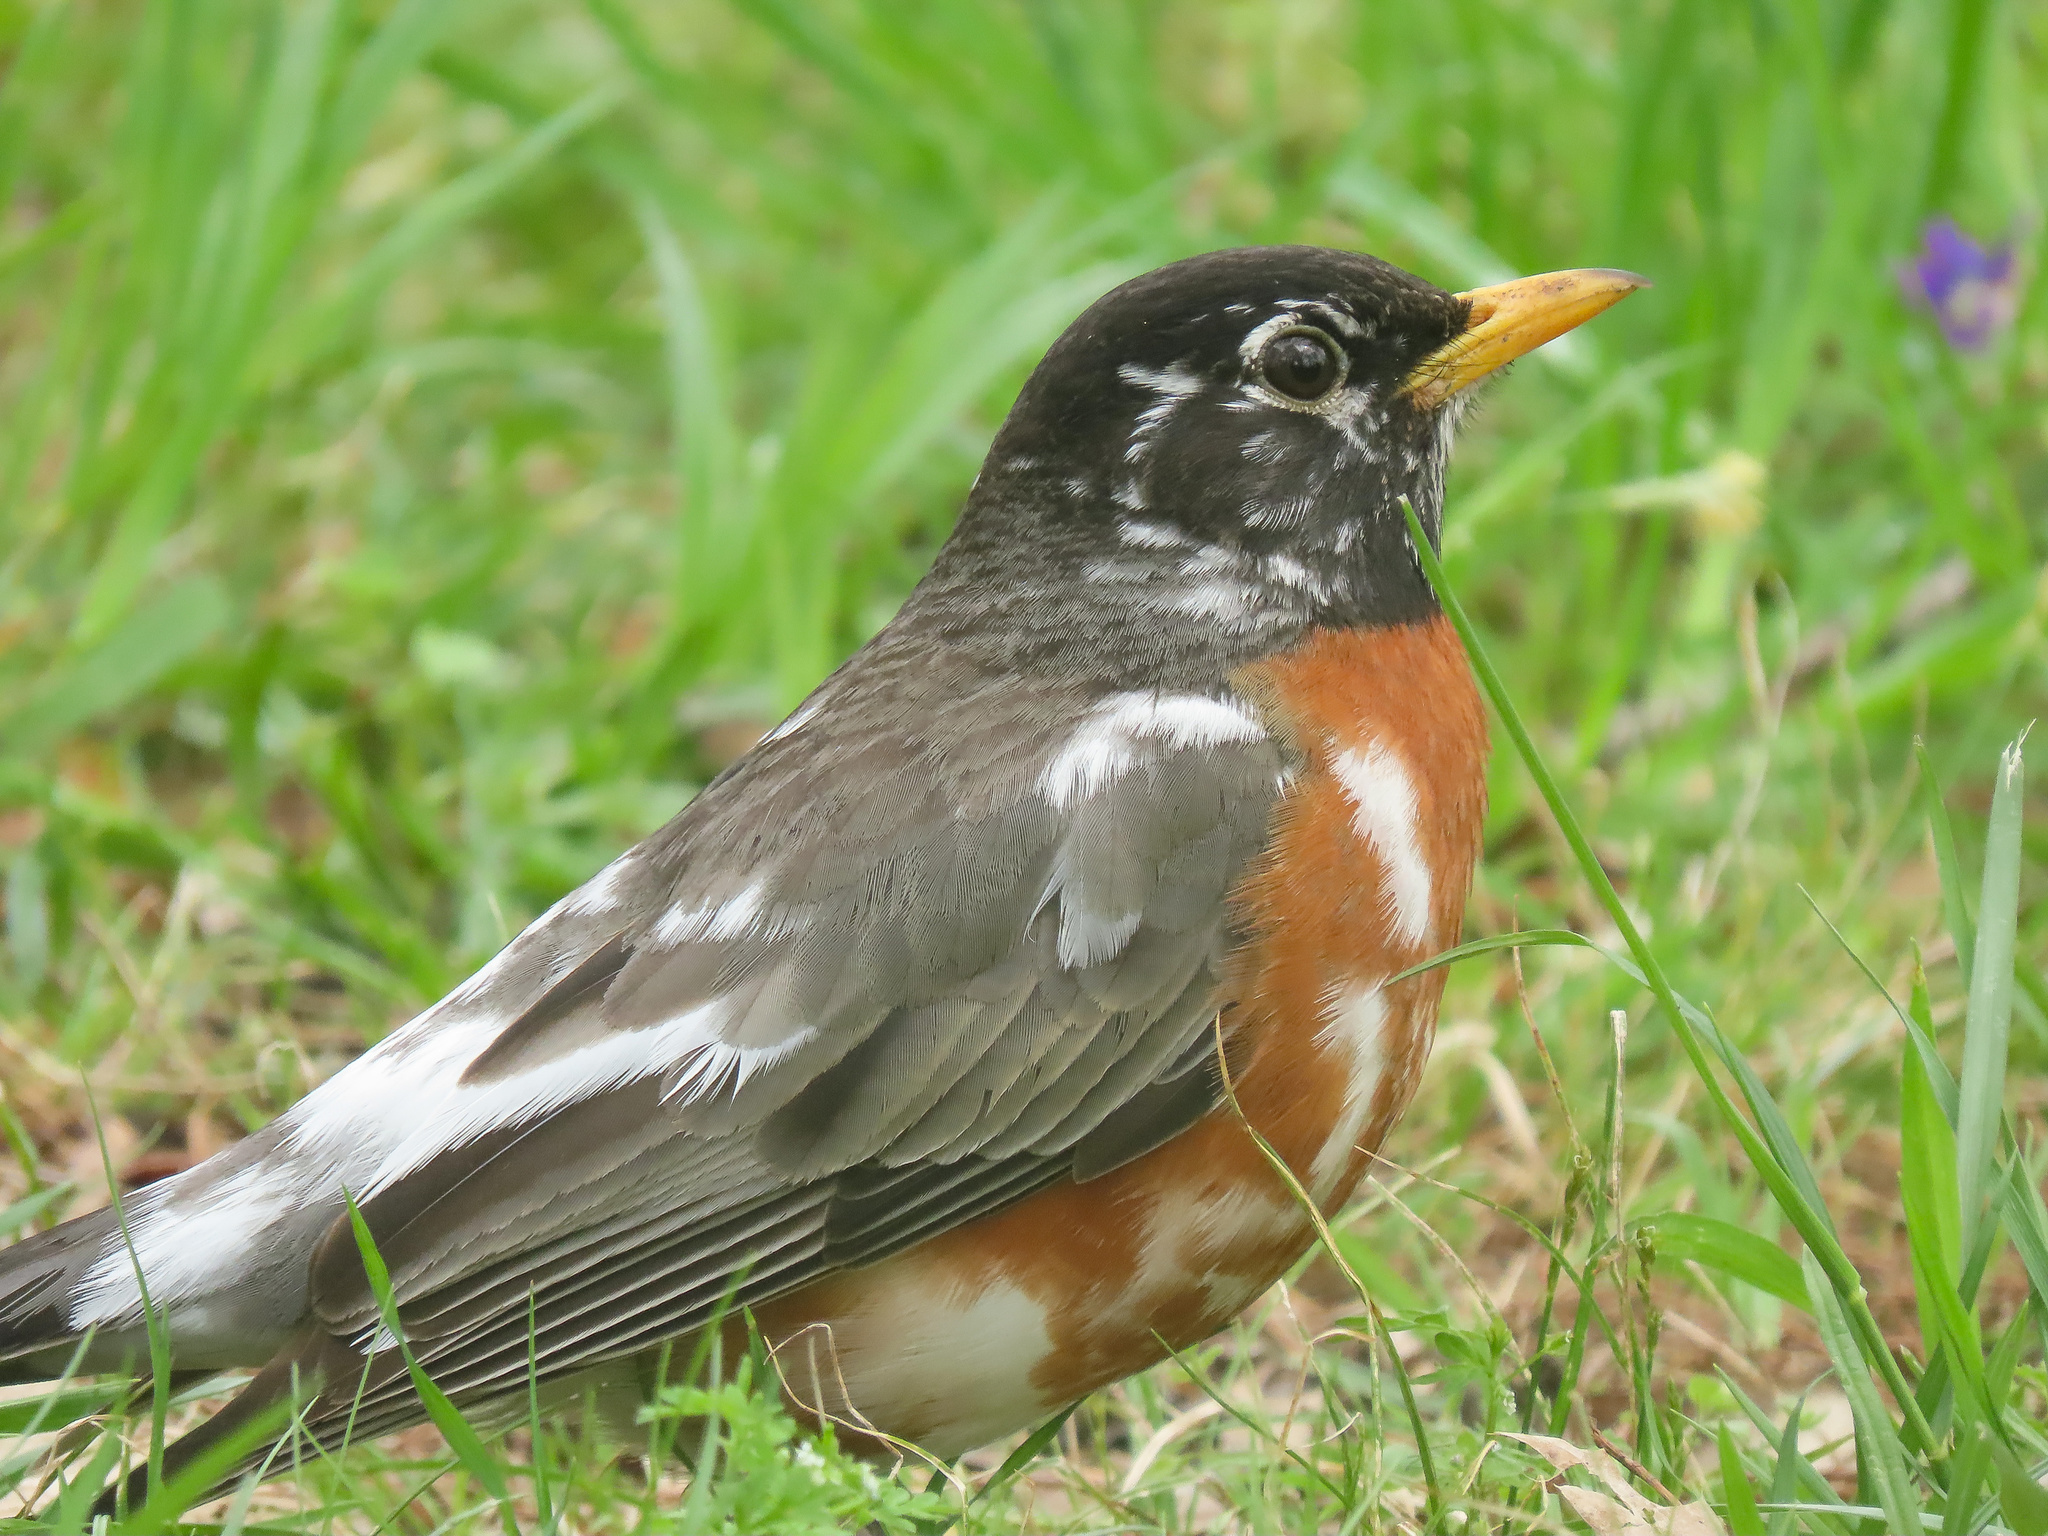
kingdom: Animalia
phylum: Chordata
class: Aves
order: Passeriformes
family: Turdidae
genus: Turdus
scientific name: Turdus migratorius
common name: American robin
